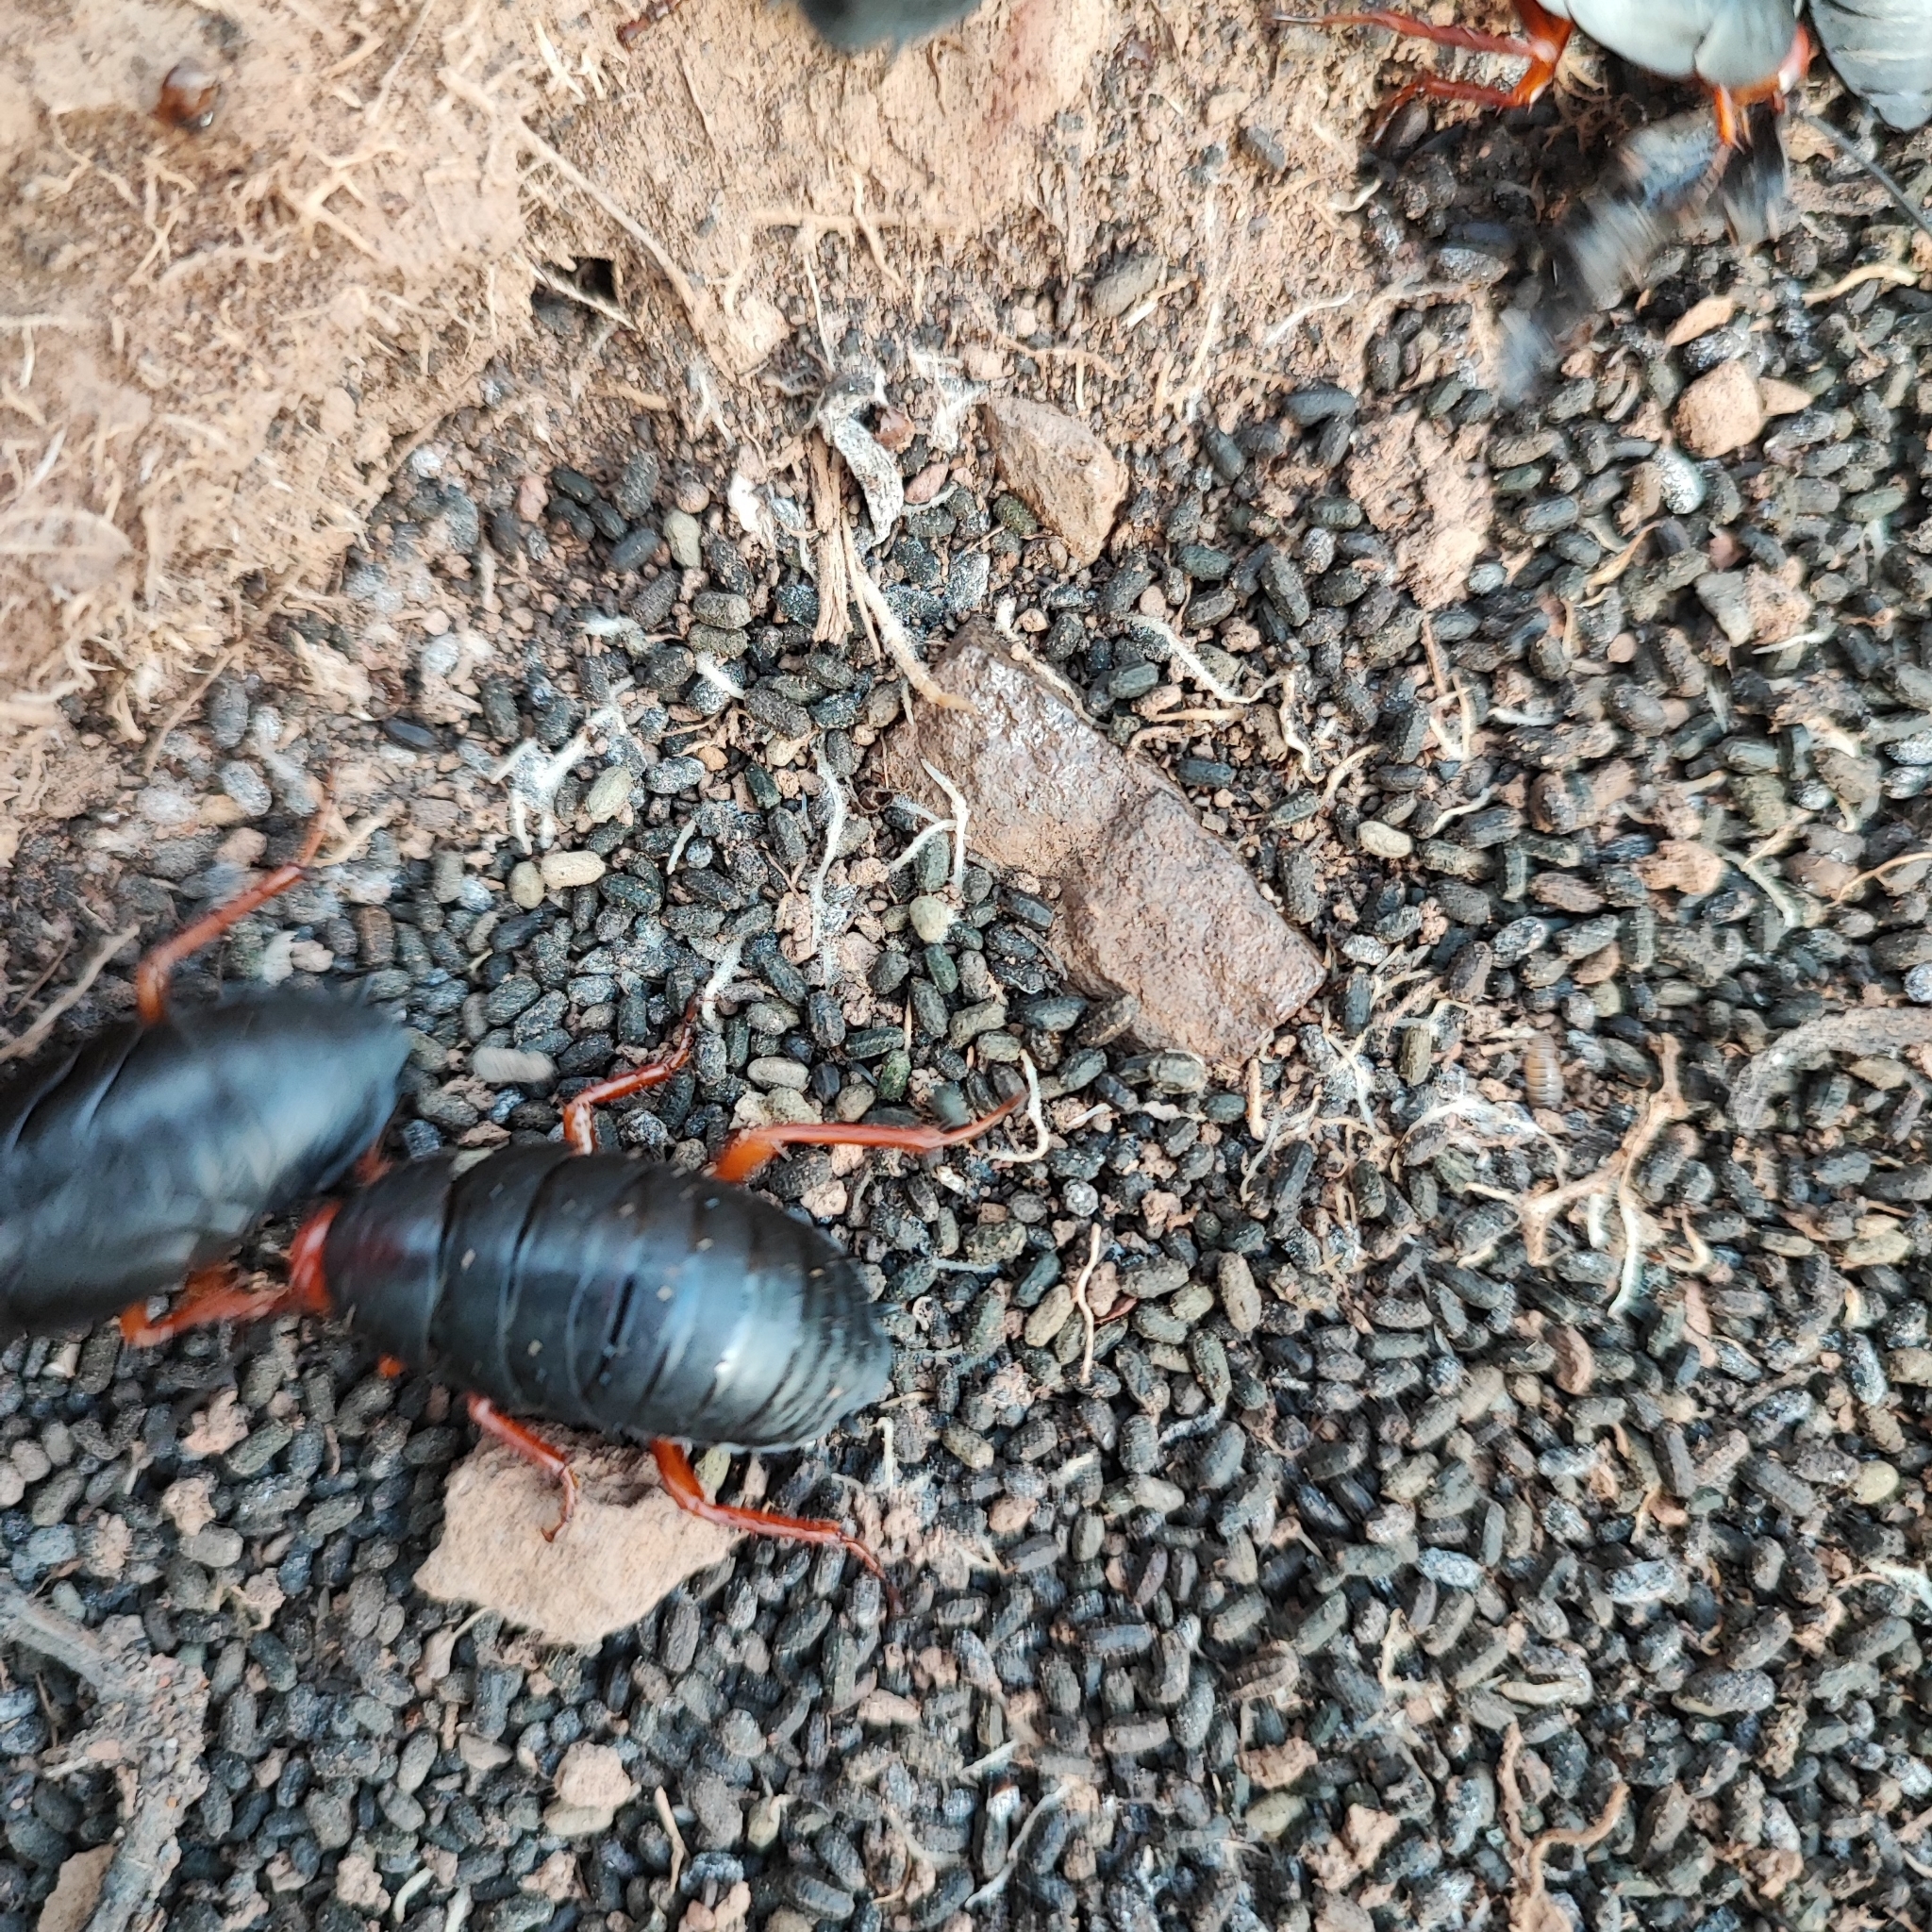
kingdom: Animalia
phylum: Arthropoda
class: Insecta
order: Blattodea
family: Blattidae
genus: Deropeltis
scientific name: Deropeltis erythrocephala
